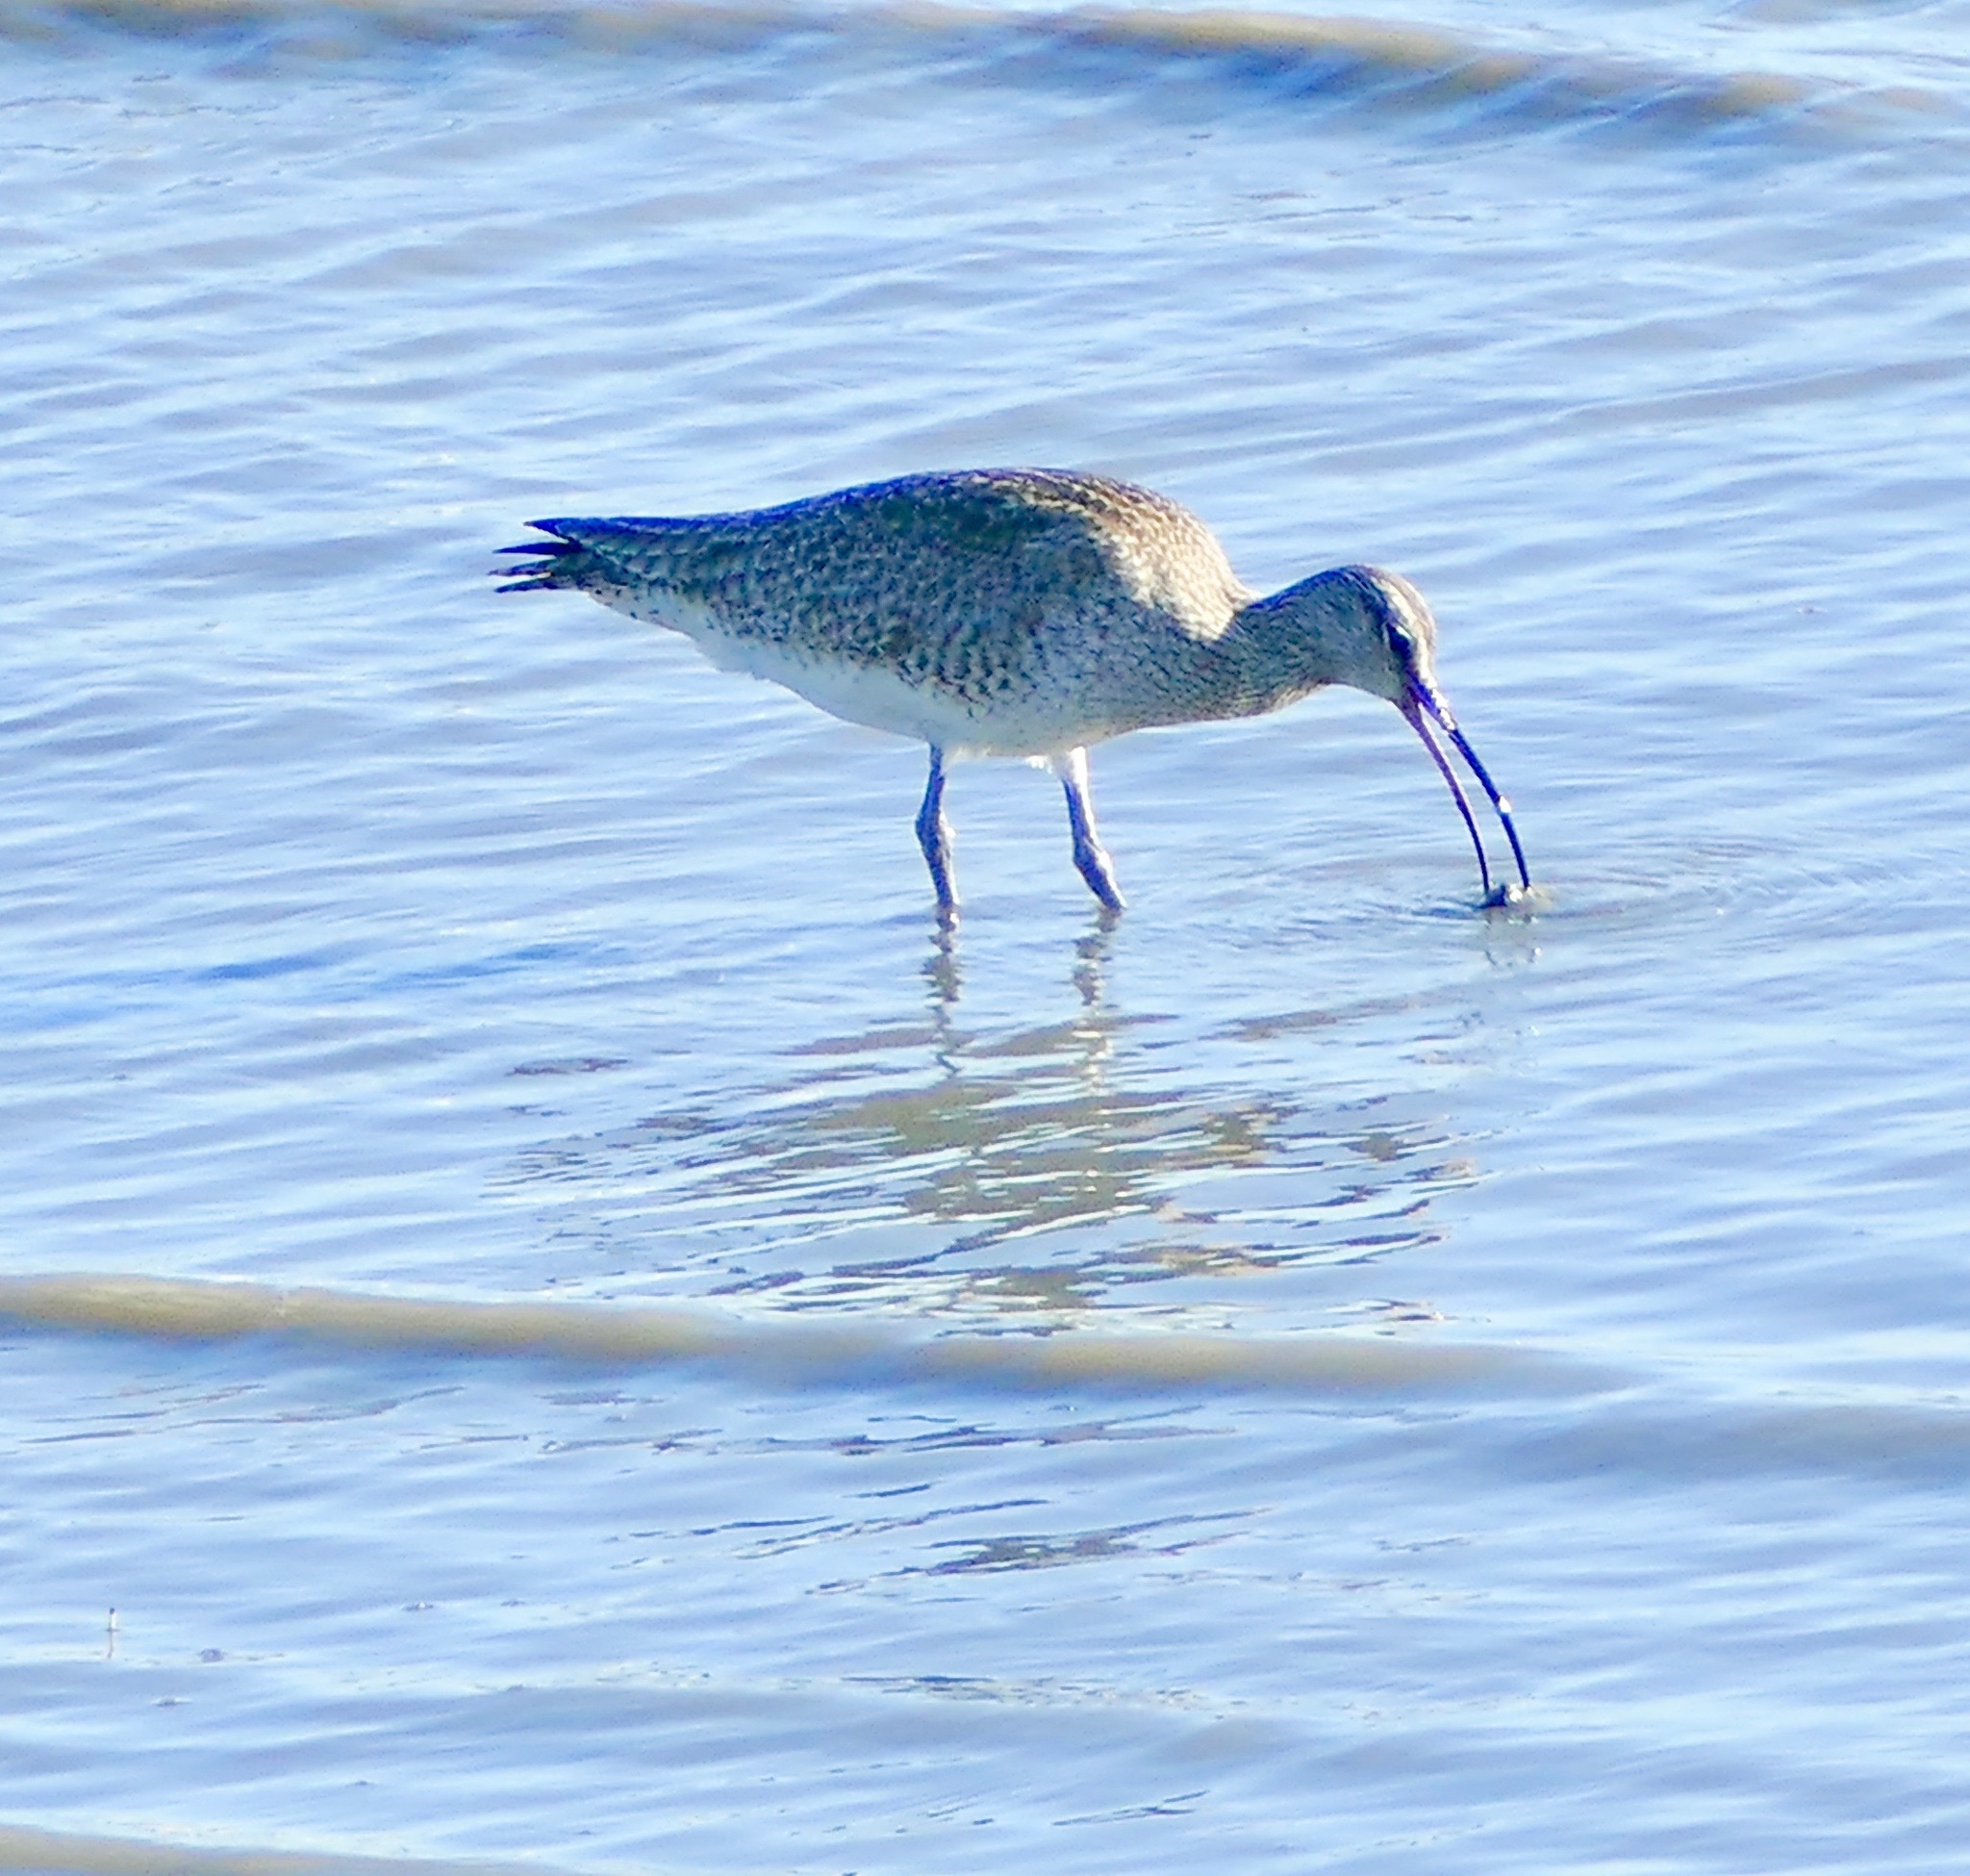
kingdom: Animalia
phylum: Chordata
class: Aves
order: Charadriiformes
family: Scolopacidae
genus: Numenius
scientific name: Numenius phaeopus
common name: Whimbrel
